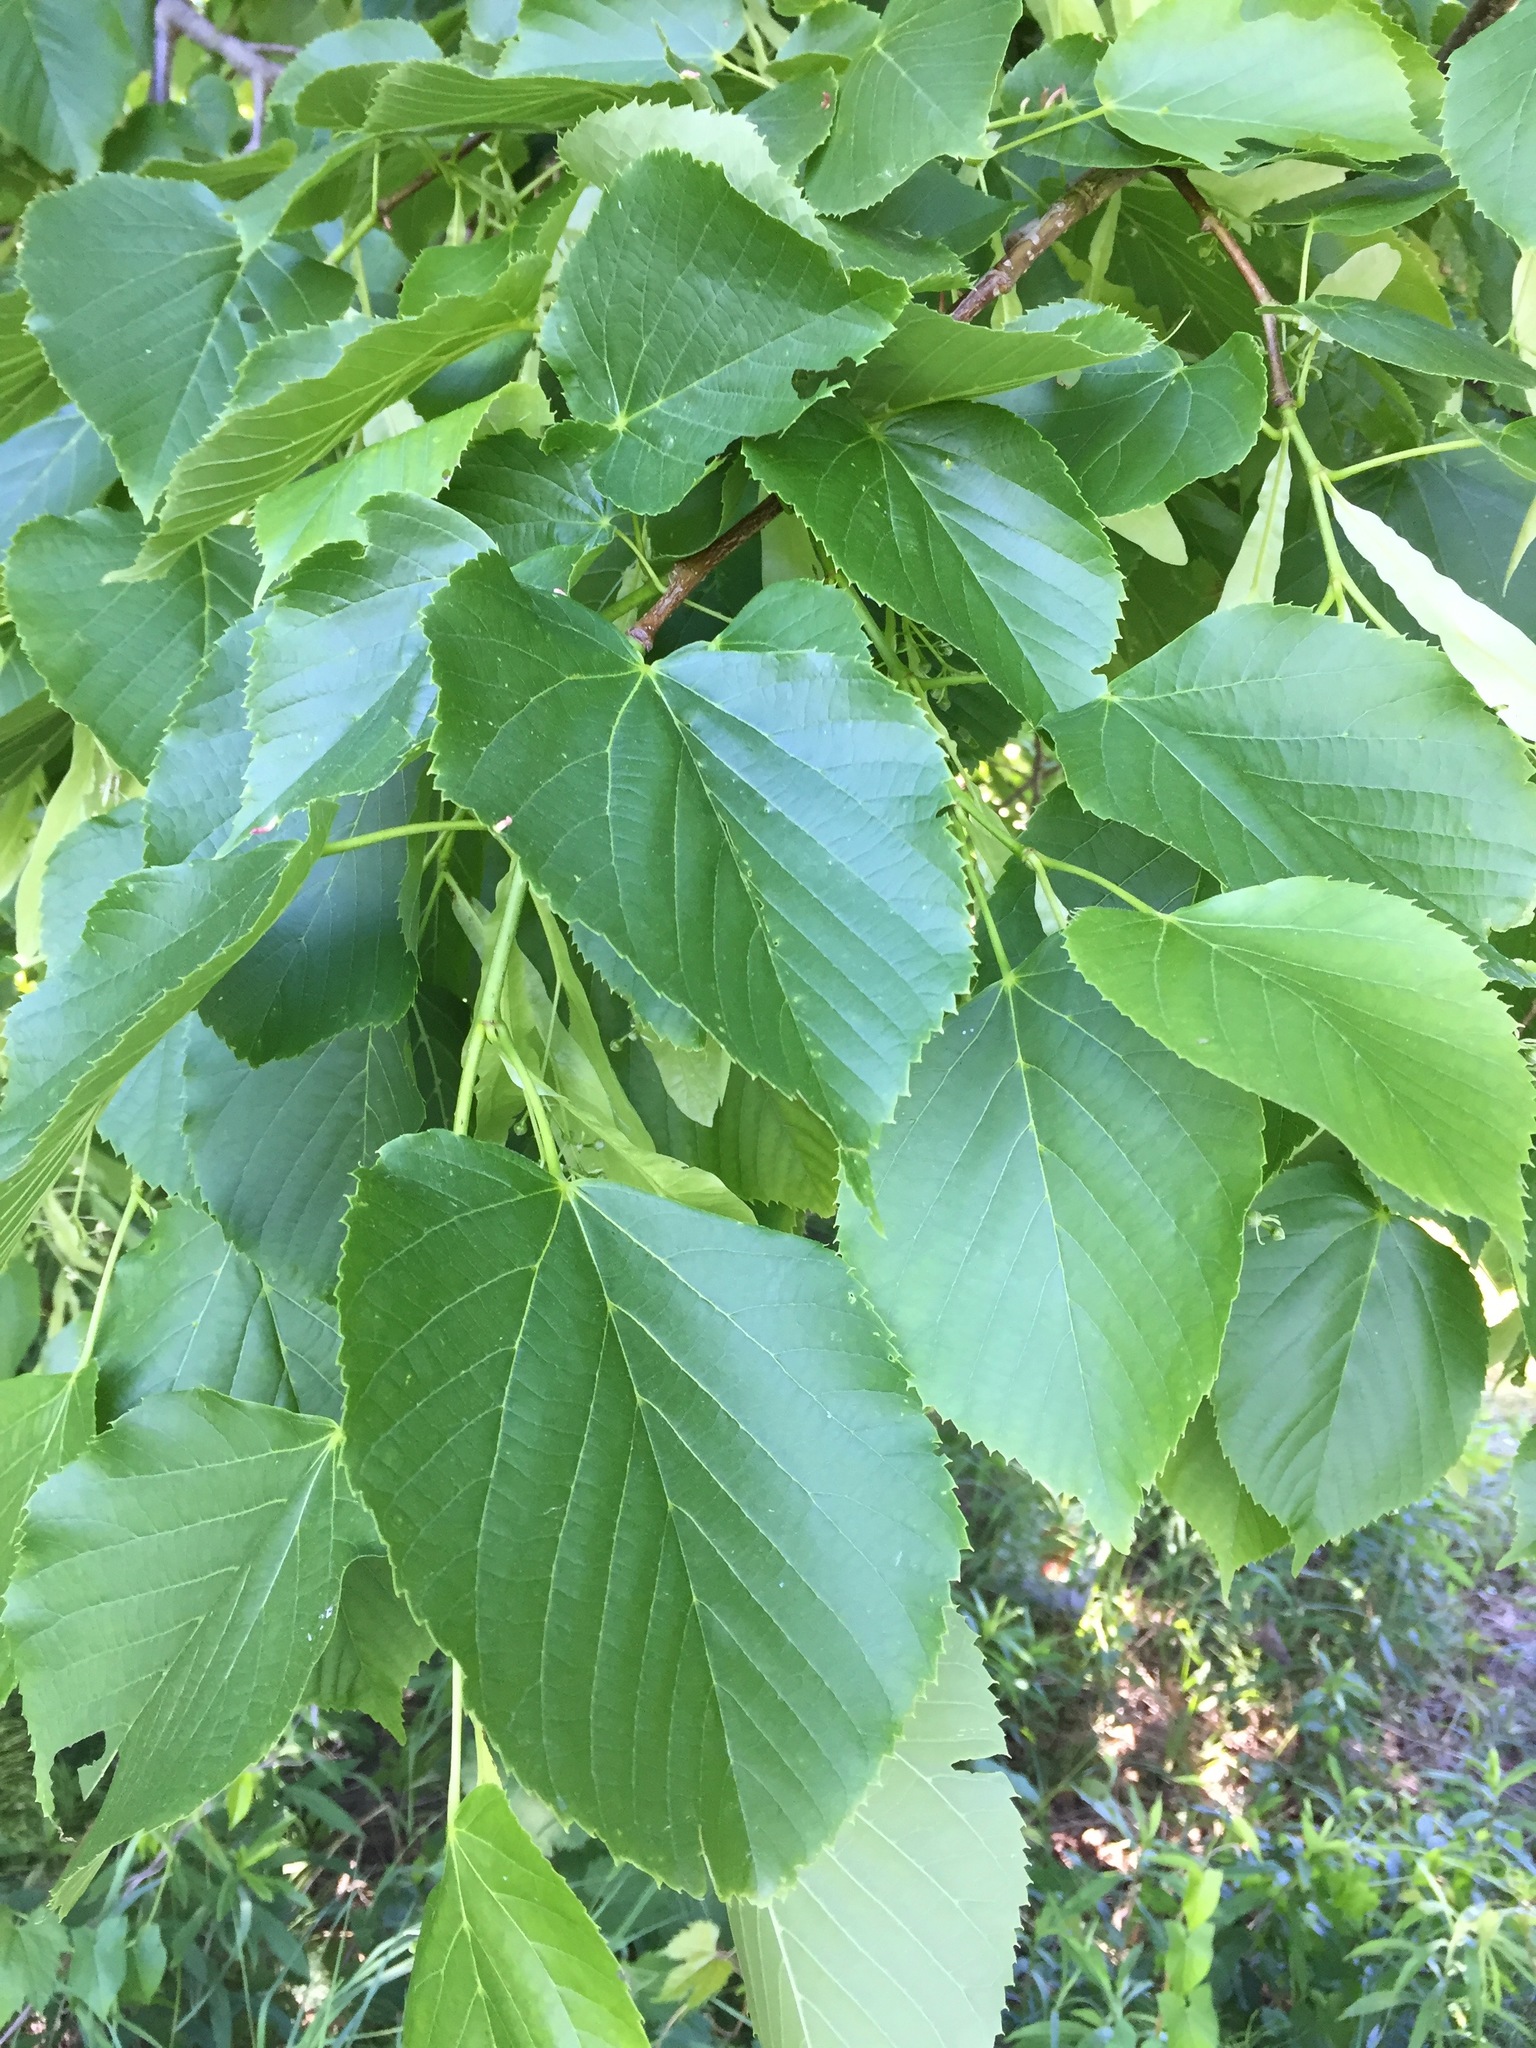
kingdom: Plantae
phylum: Tracheophyta
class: Magnoliopsida
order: Malvales
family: Malvaceae
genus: Tilia
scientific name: Tilia americana
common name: Basswood
